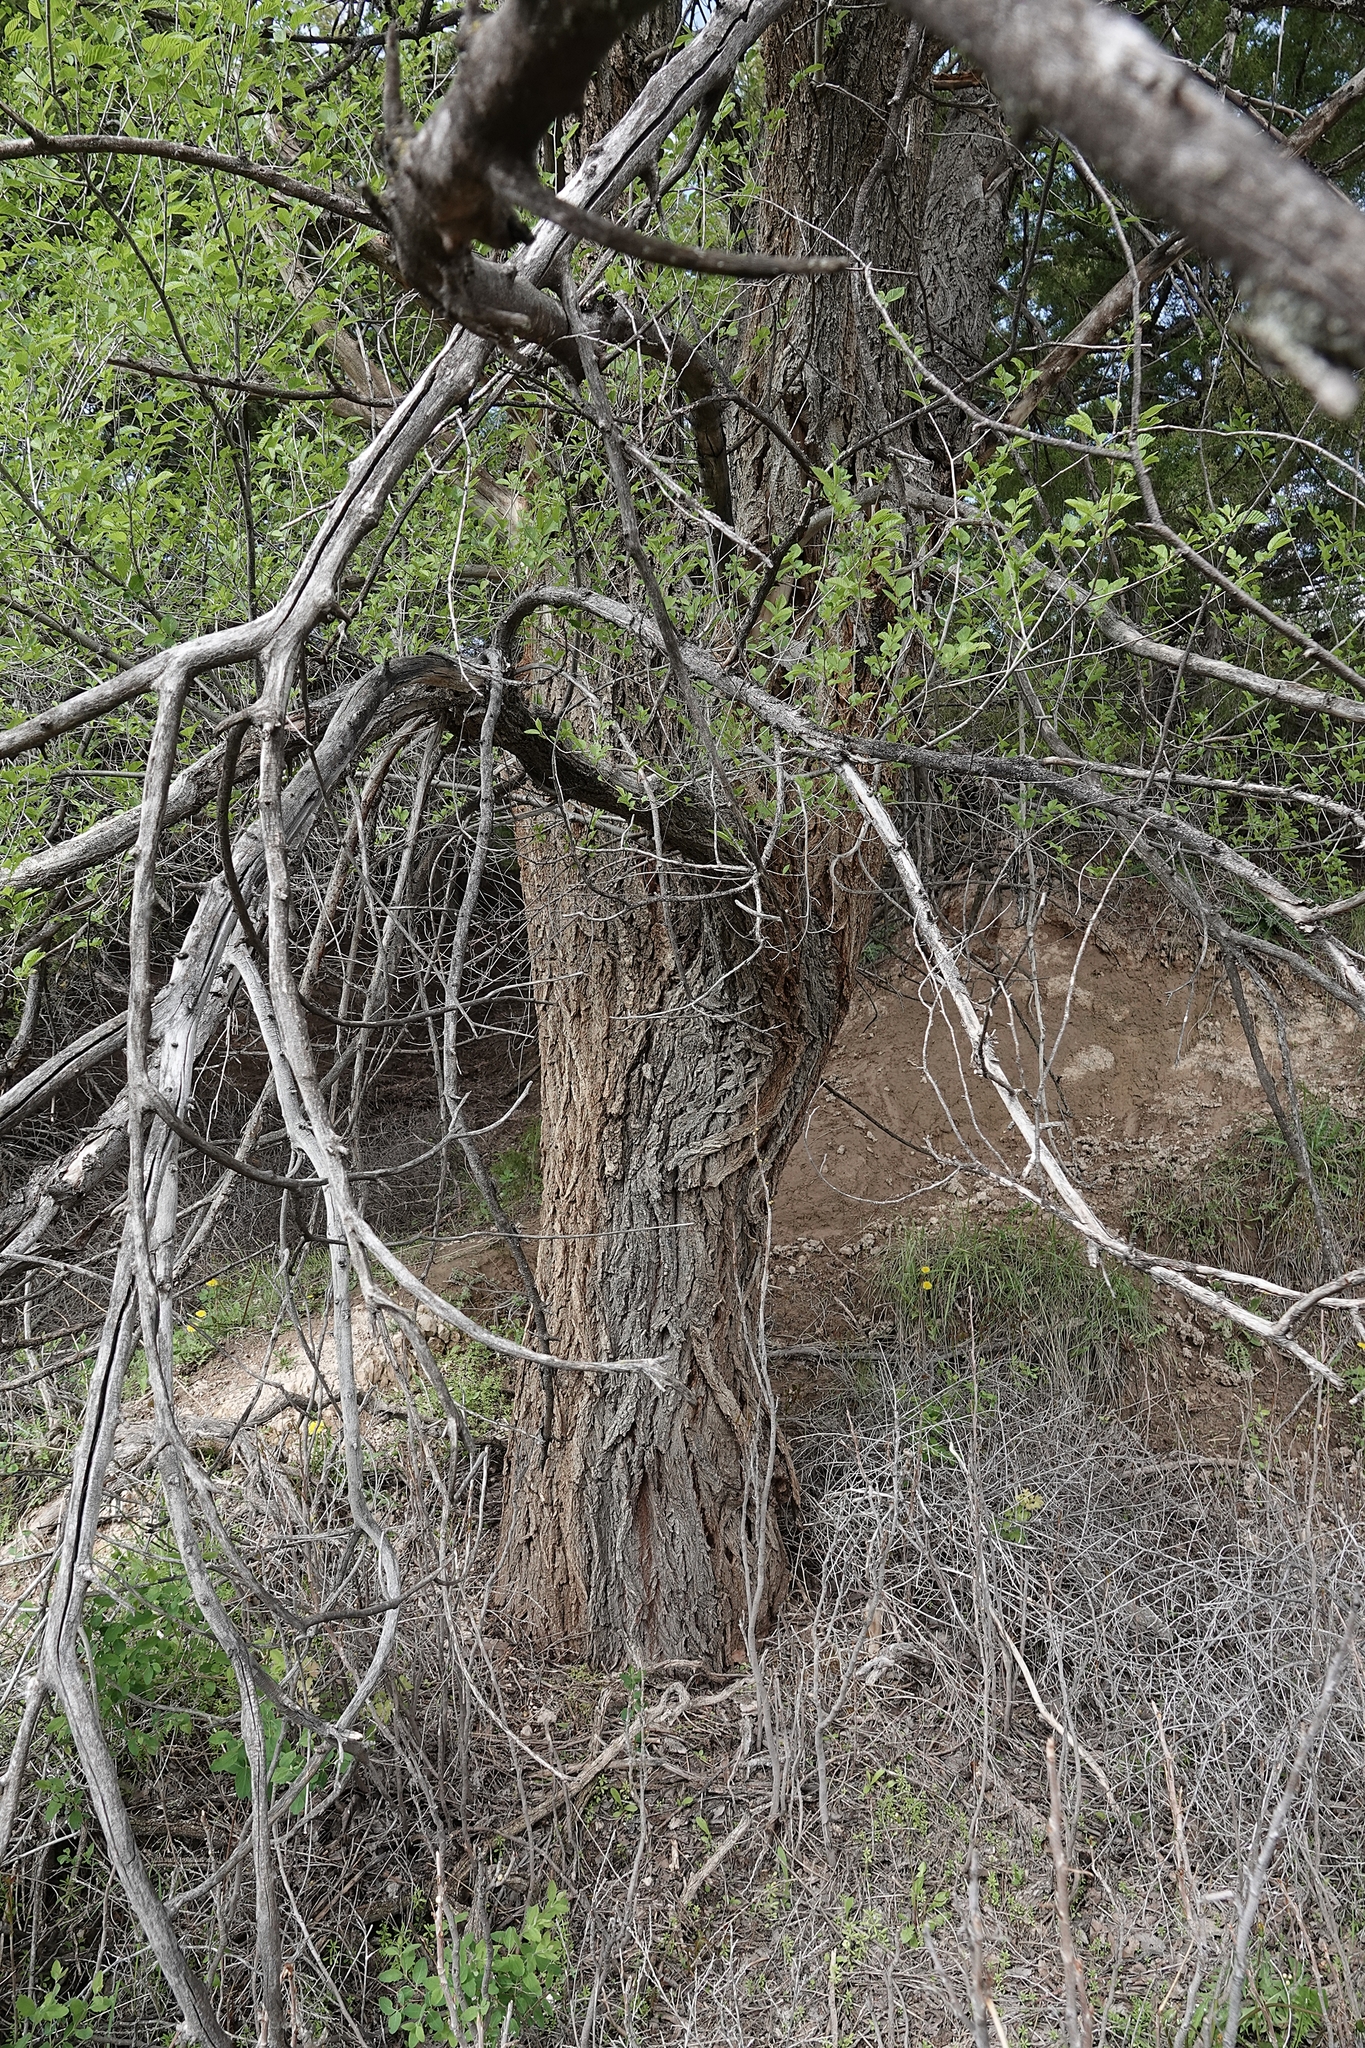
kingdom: Plantae
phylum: Tracheophyta
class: Magnoliopsida
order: Rosales
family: Ulmaceae
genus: Ulmus
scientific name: Ulmus pumila
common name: Siberian elm
